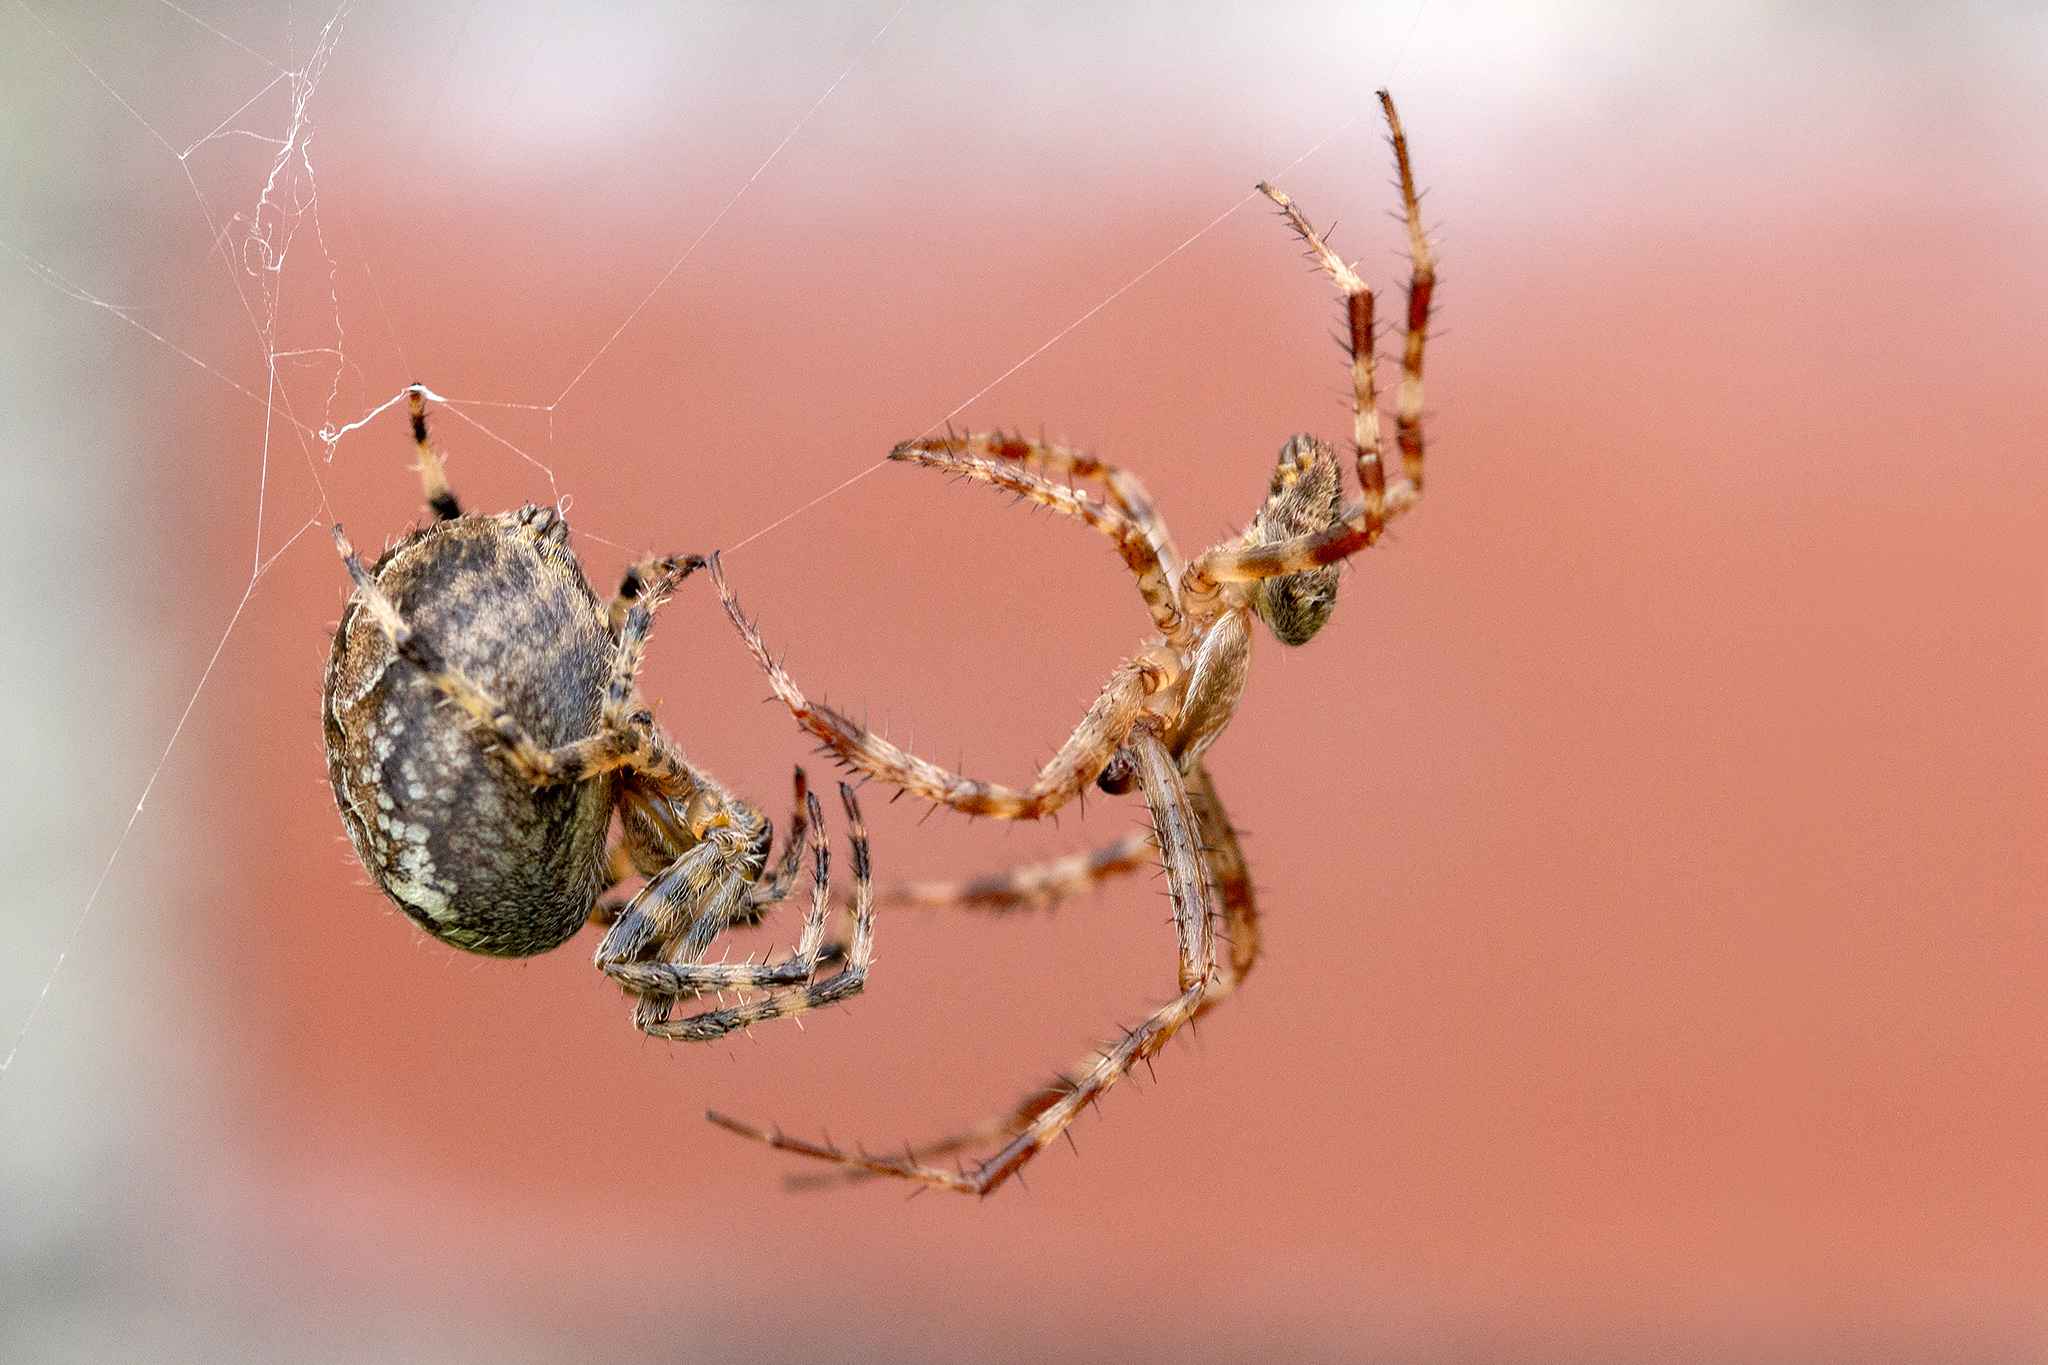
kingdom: Animalia
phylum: Arthropoda
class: Arachnida
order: Araneae
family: Araneidae
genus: Araneus
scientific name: Araneus diadematus
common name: Cross orbweaver
